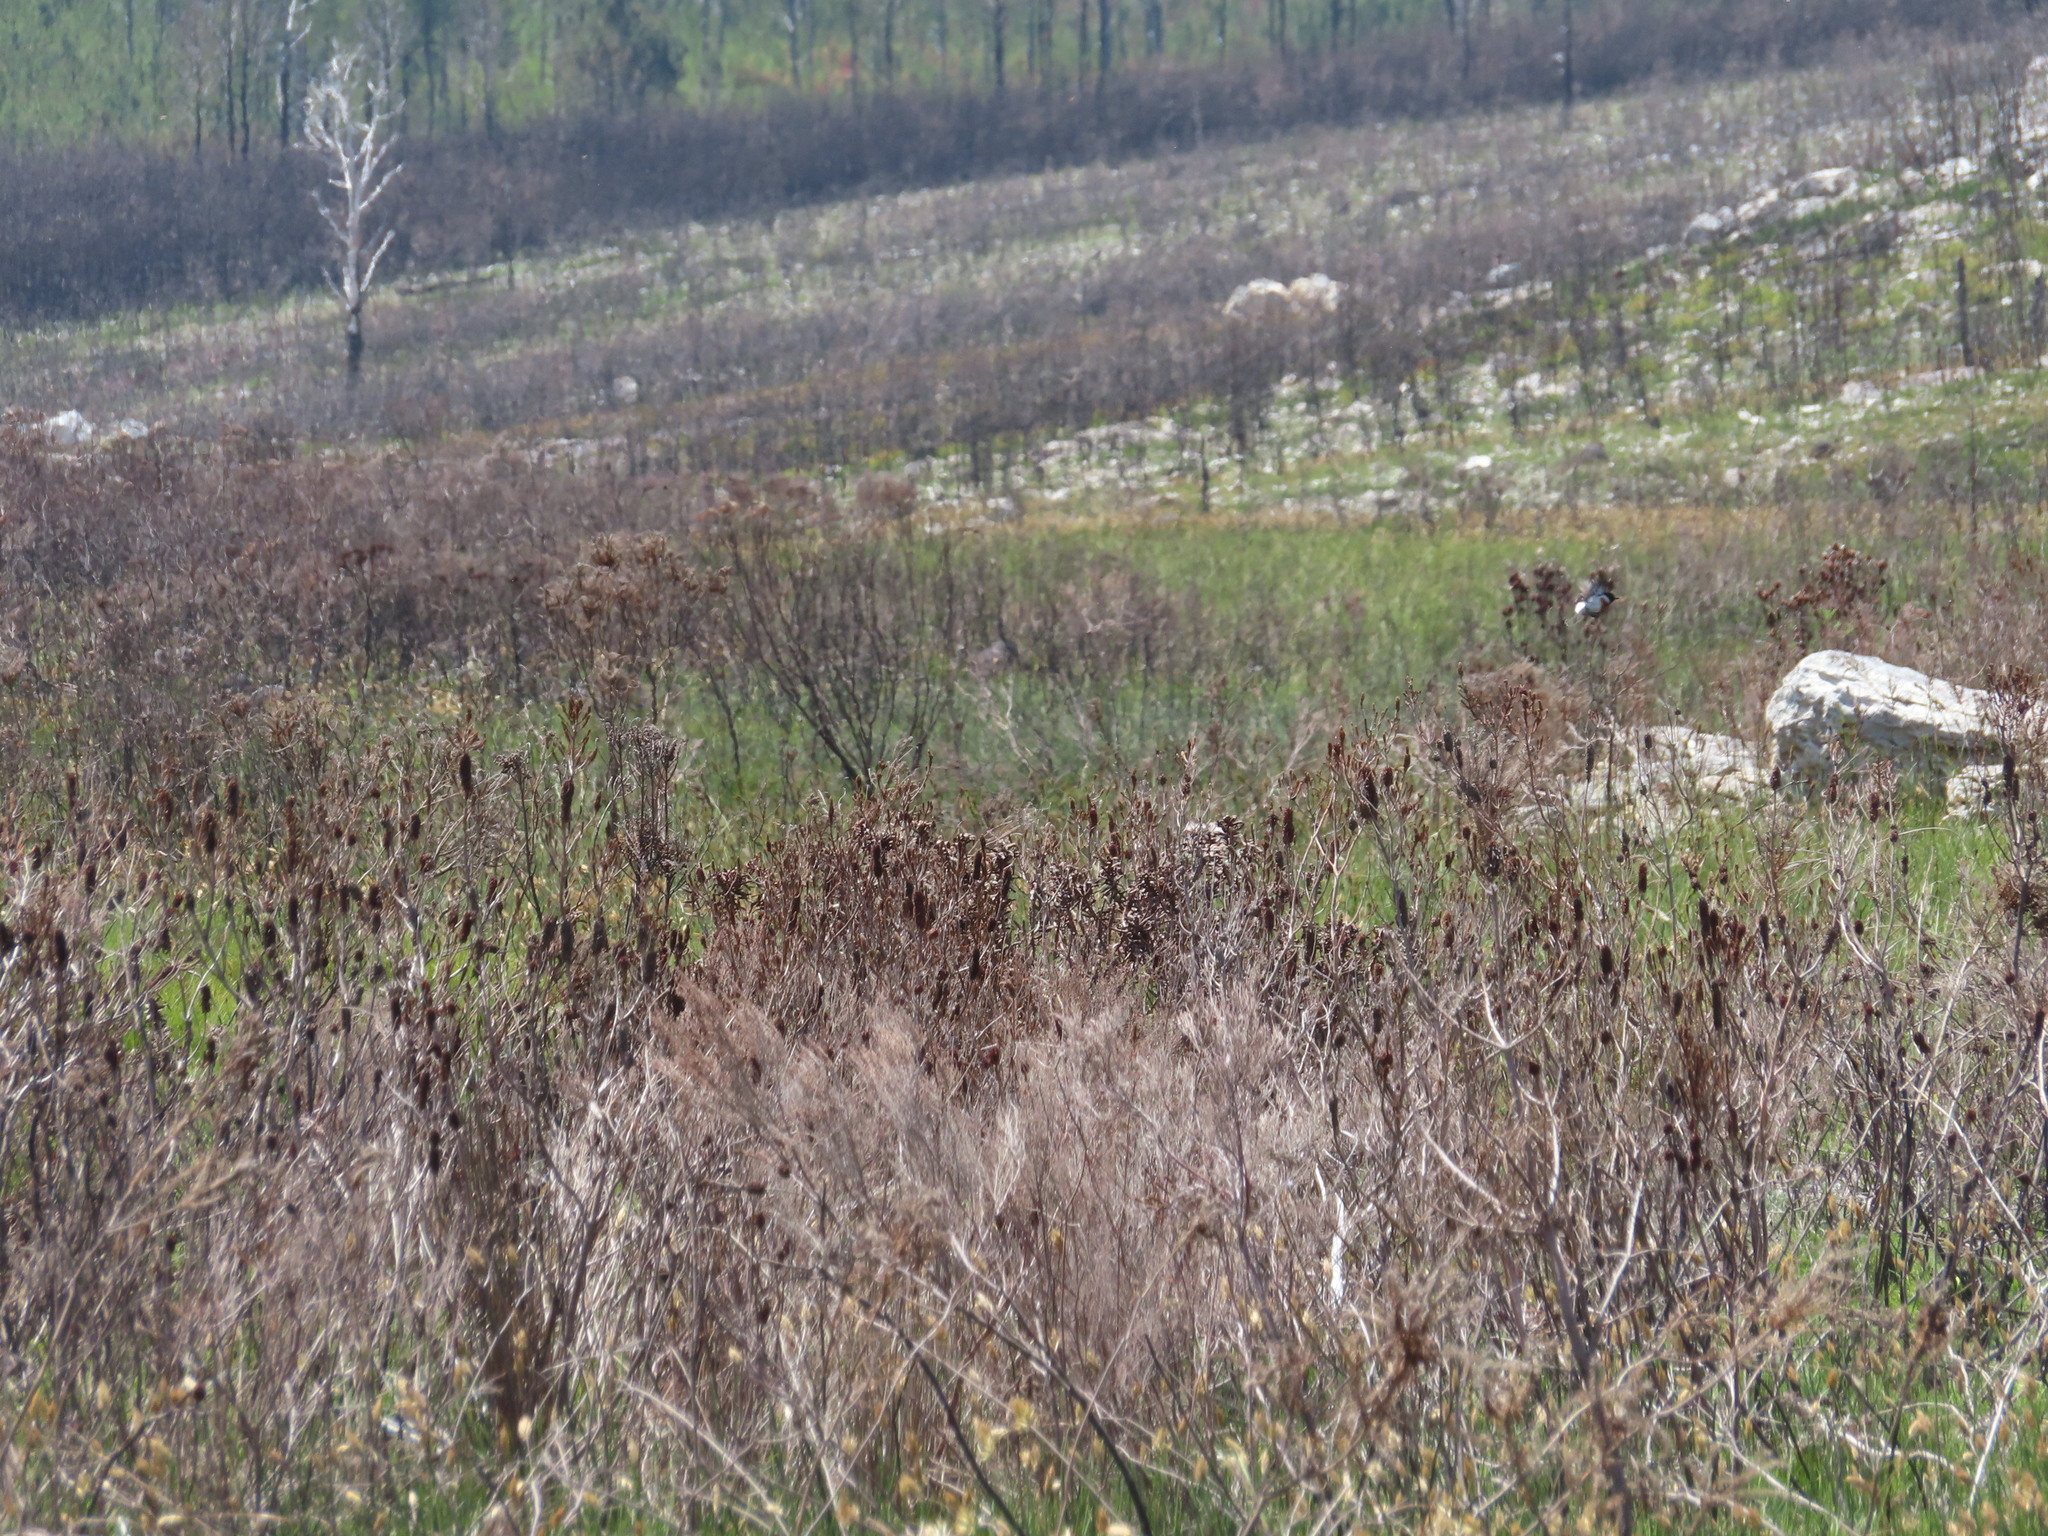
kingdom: Plantae
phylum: Tracheophyta
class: Magnoliopsida
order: Ericales
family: Ericaceae
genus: Erica
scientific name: Erica sessiliflora
